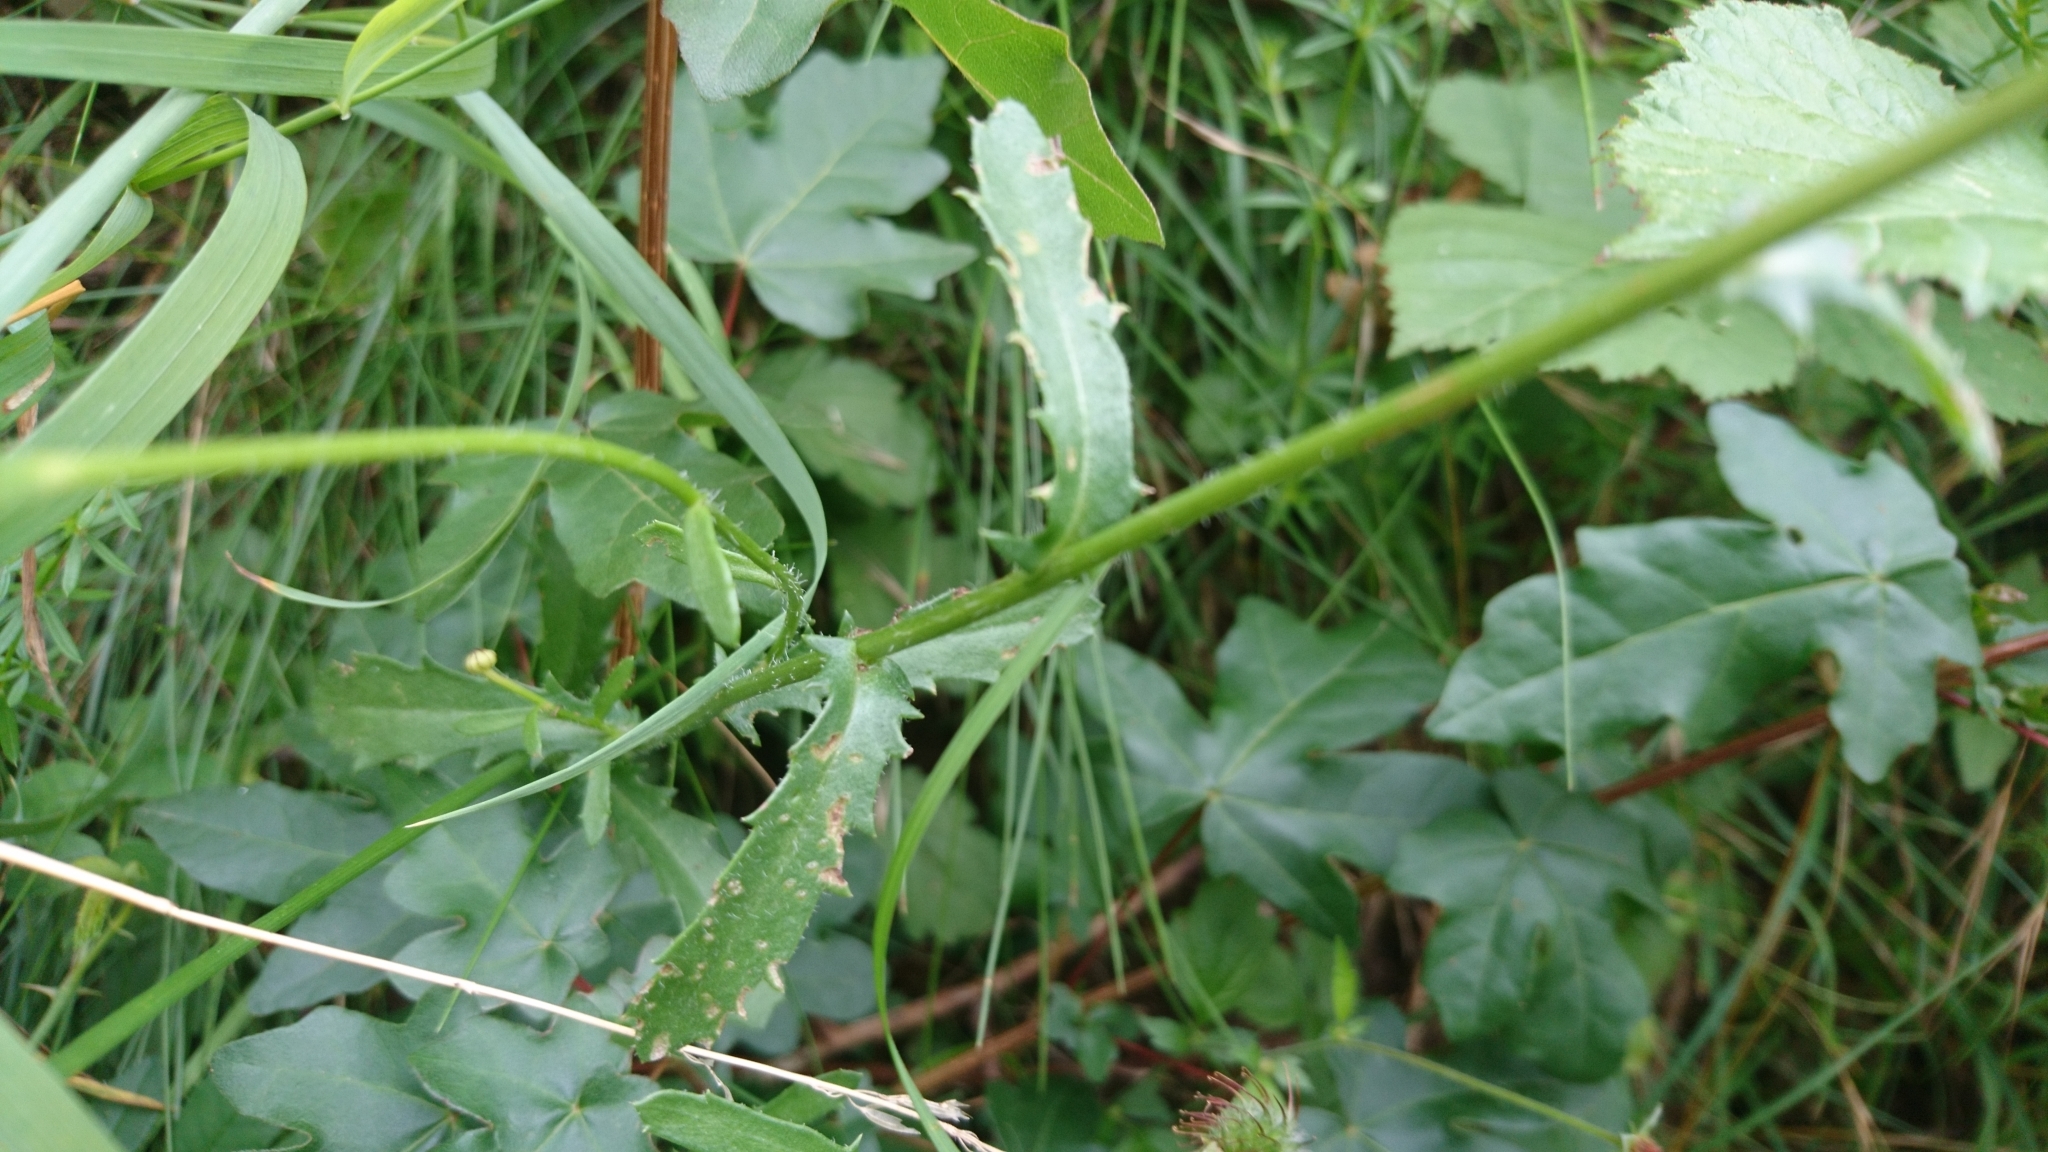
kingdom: Plantae
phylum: Tracheophyta
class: Magnoliopsida
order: Asterales
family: Asteraceae
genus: Leucanthemum
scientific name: Leucanthemum vulgare
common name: Oxeye daisy
